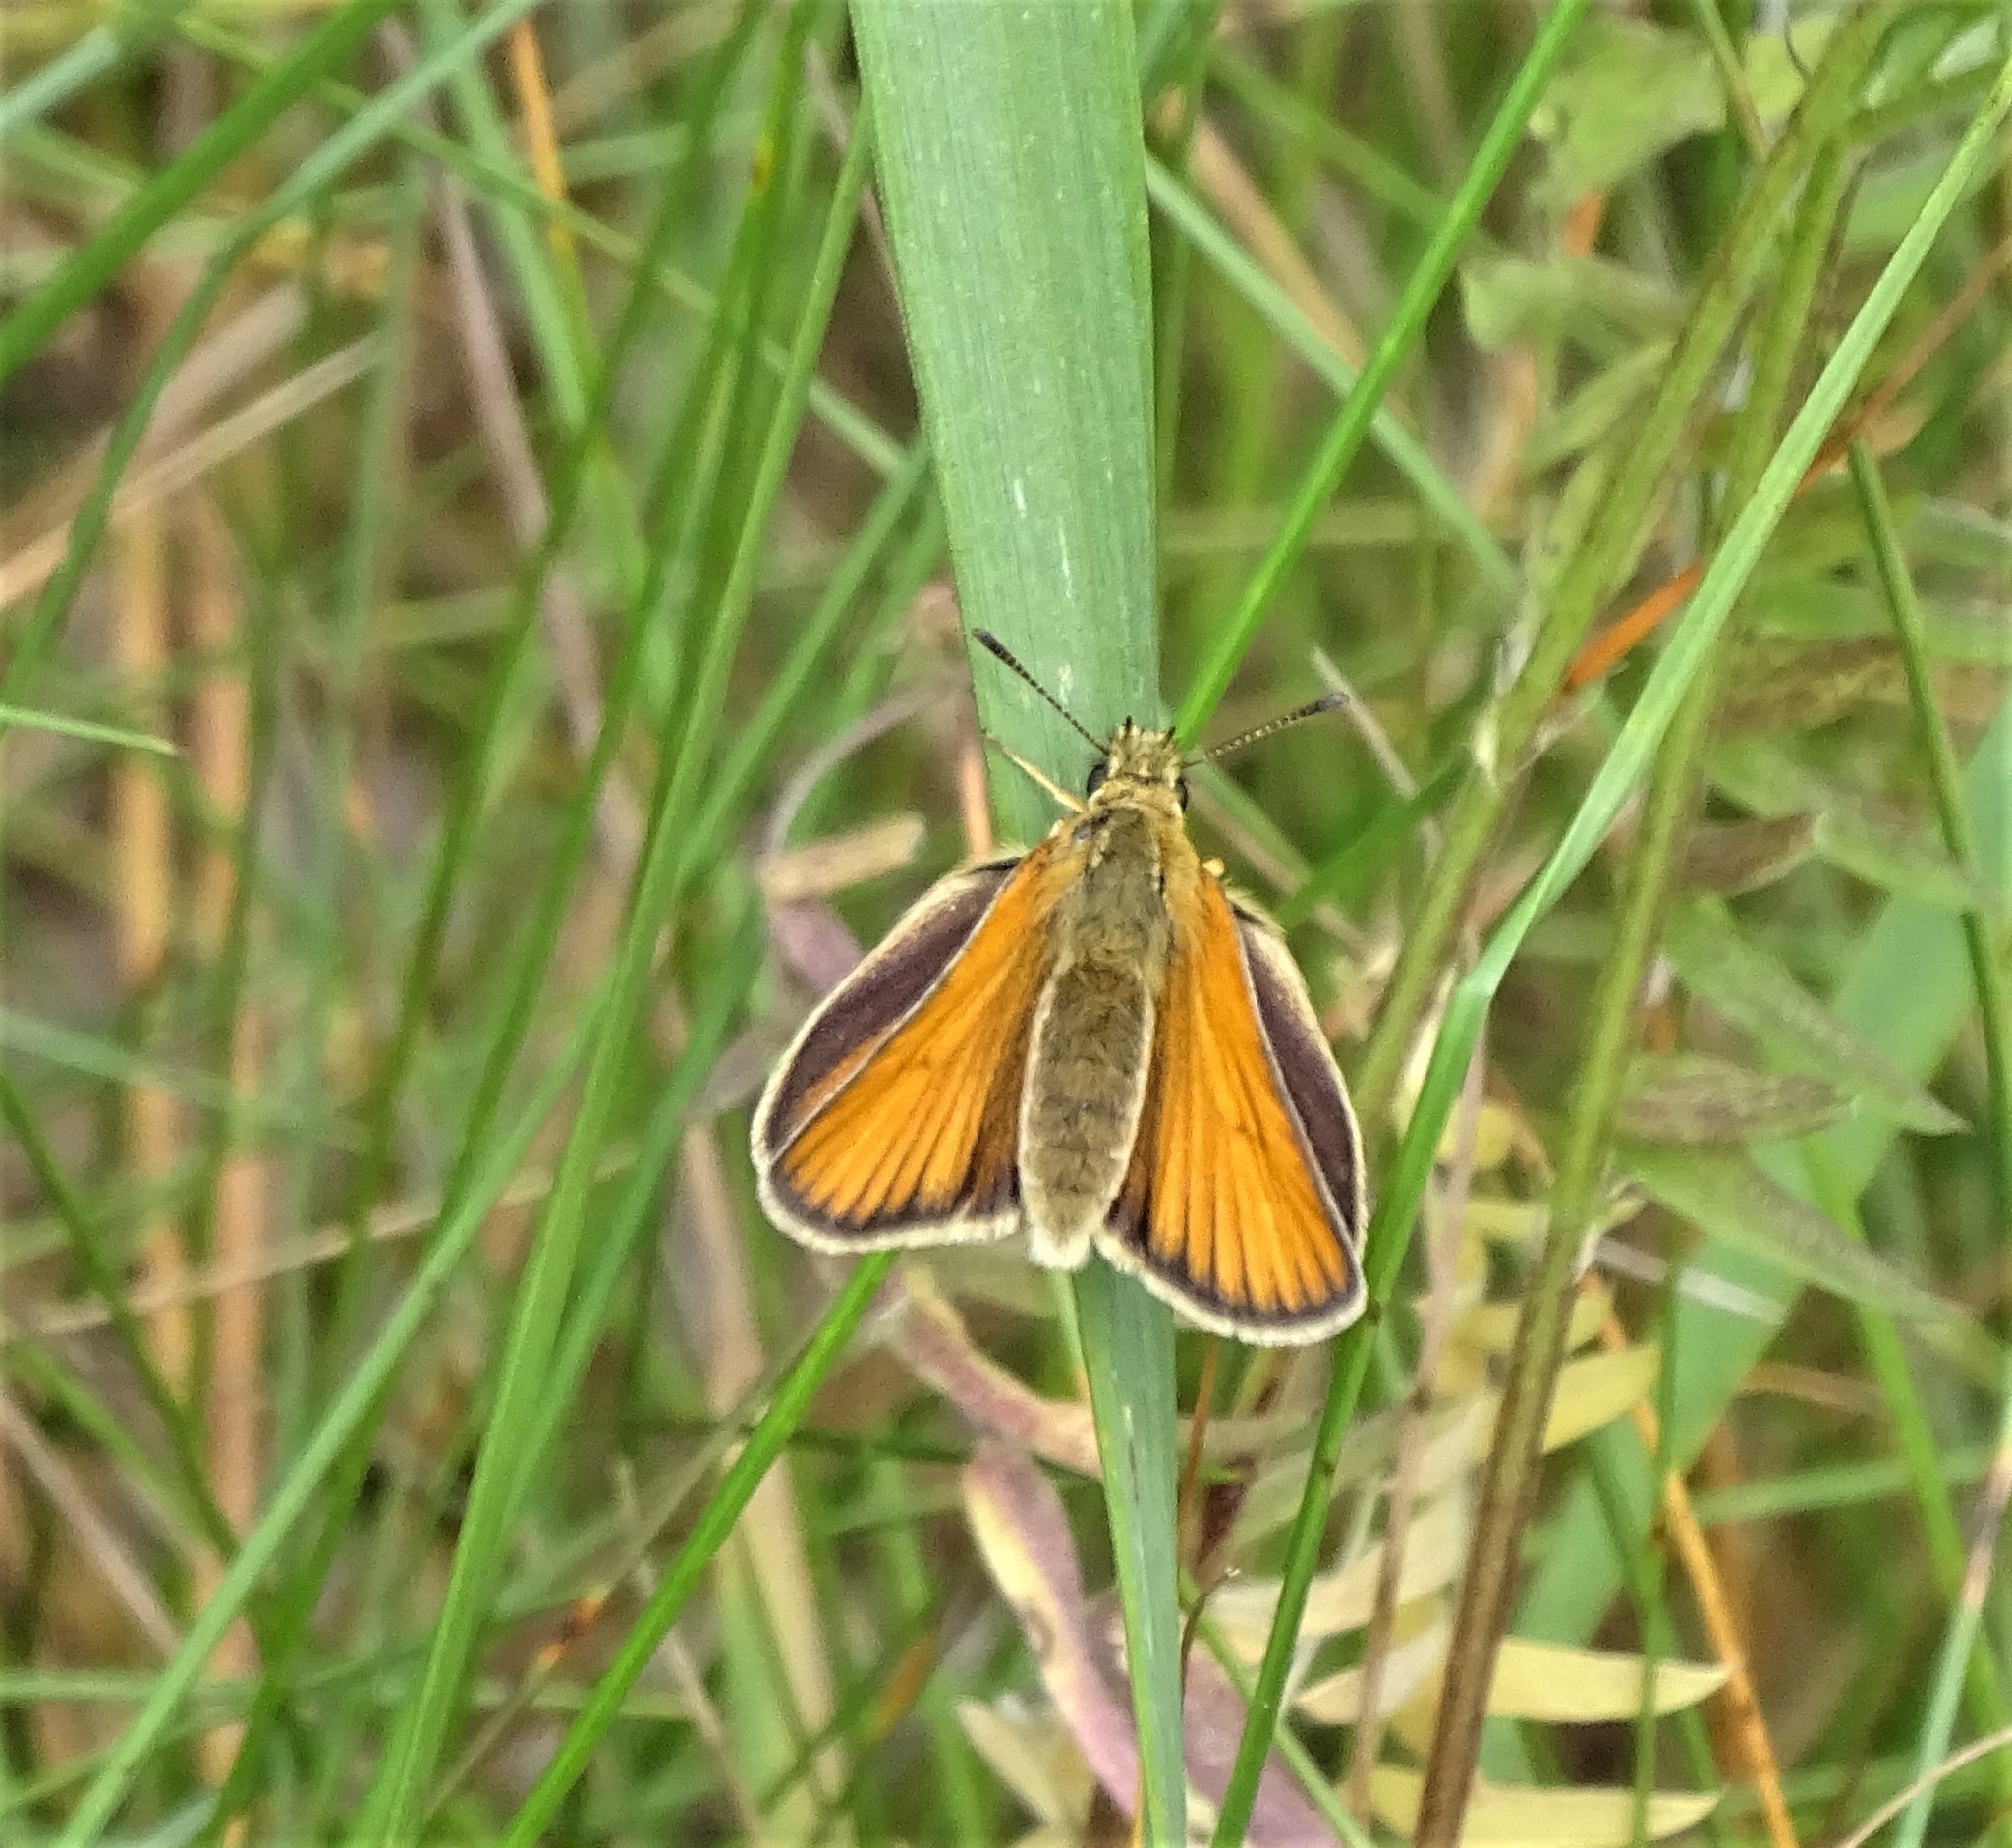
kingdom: Animalia
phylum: Arthropoda
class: Insecta
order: Lepidoptera
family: Hesperiidae
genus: Thymelicus
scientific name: Thymelicus lineola
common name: Essex skipper
